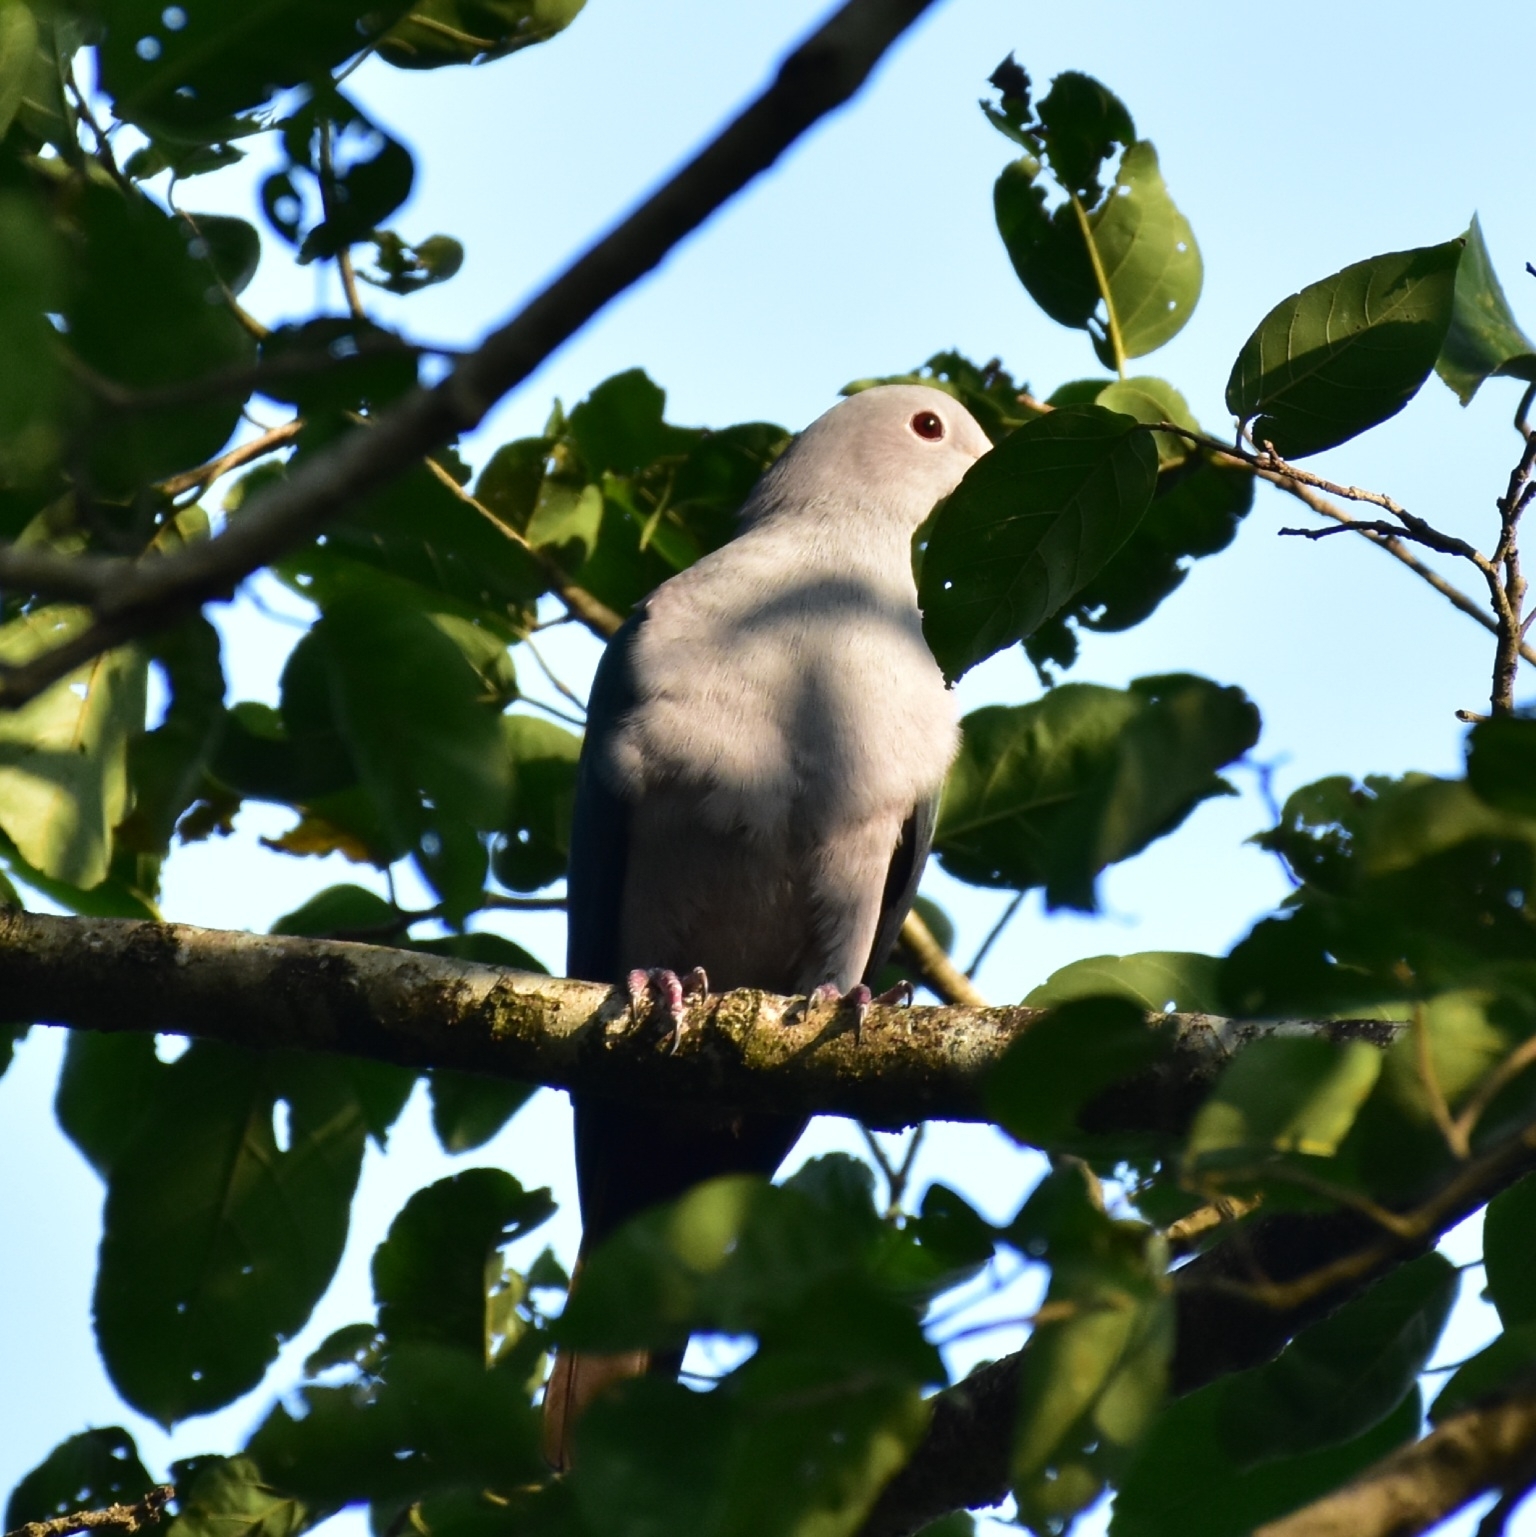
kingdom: Animalia
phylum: Chordata
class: Aves
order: Columbiformes
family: Columbidae
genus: Ducula
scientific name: Ducula aenea
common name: Green imperial pigeon
